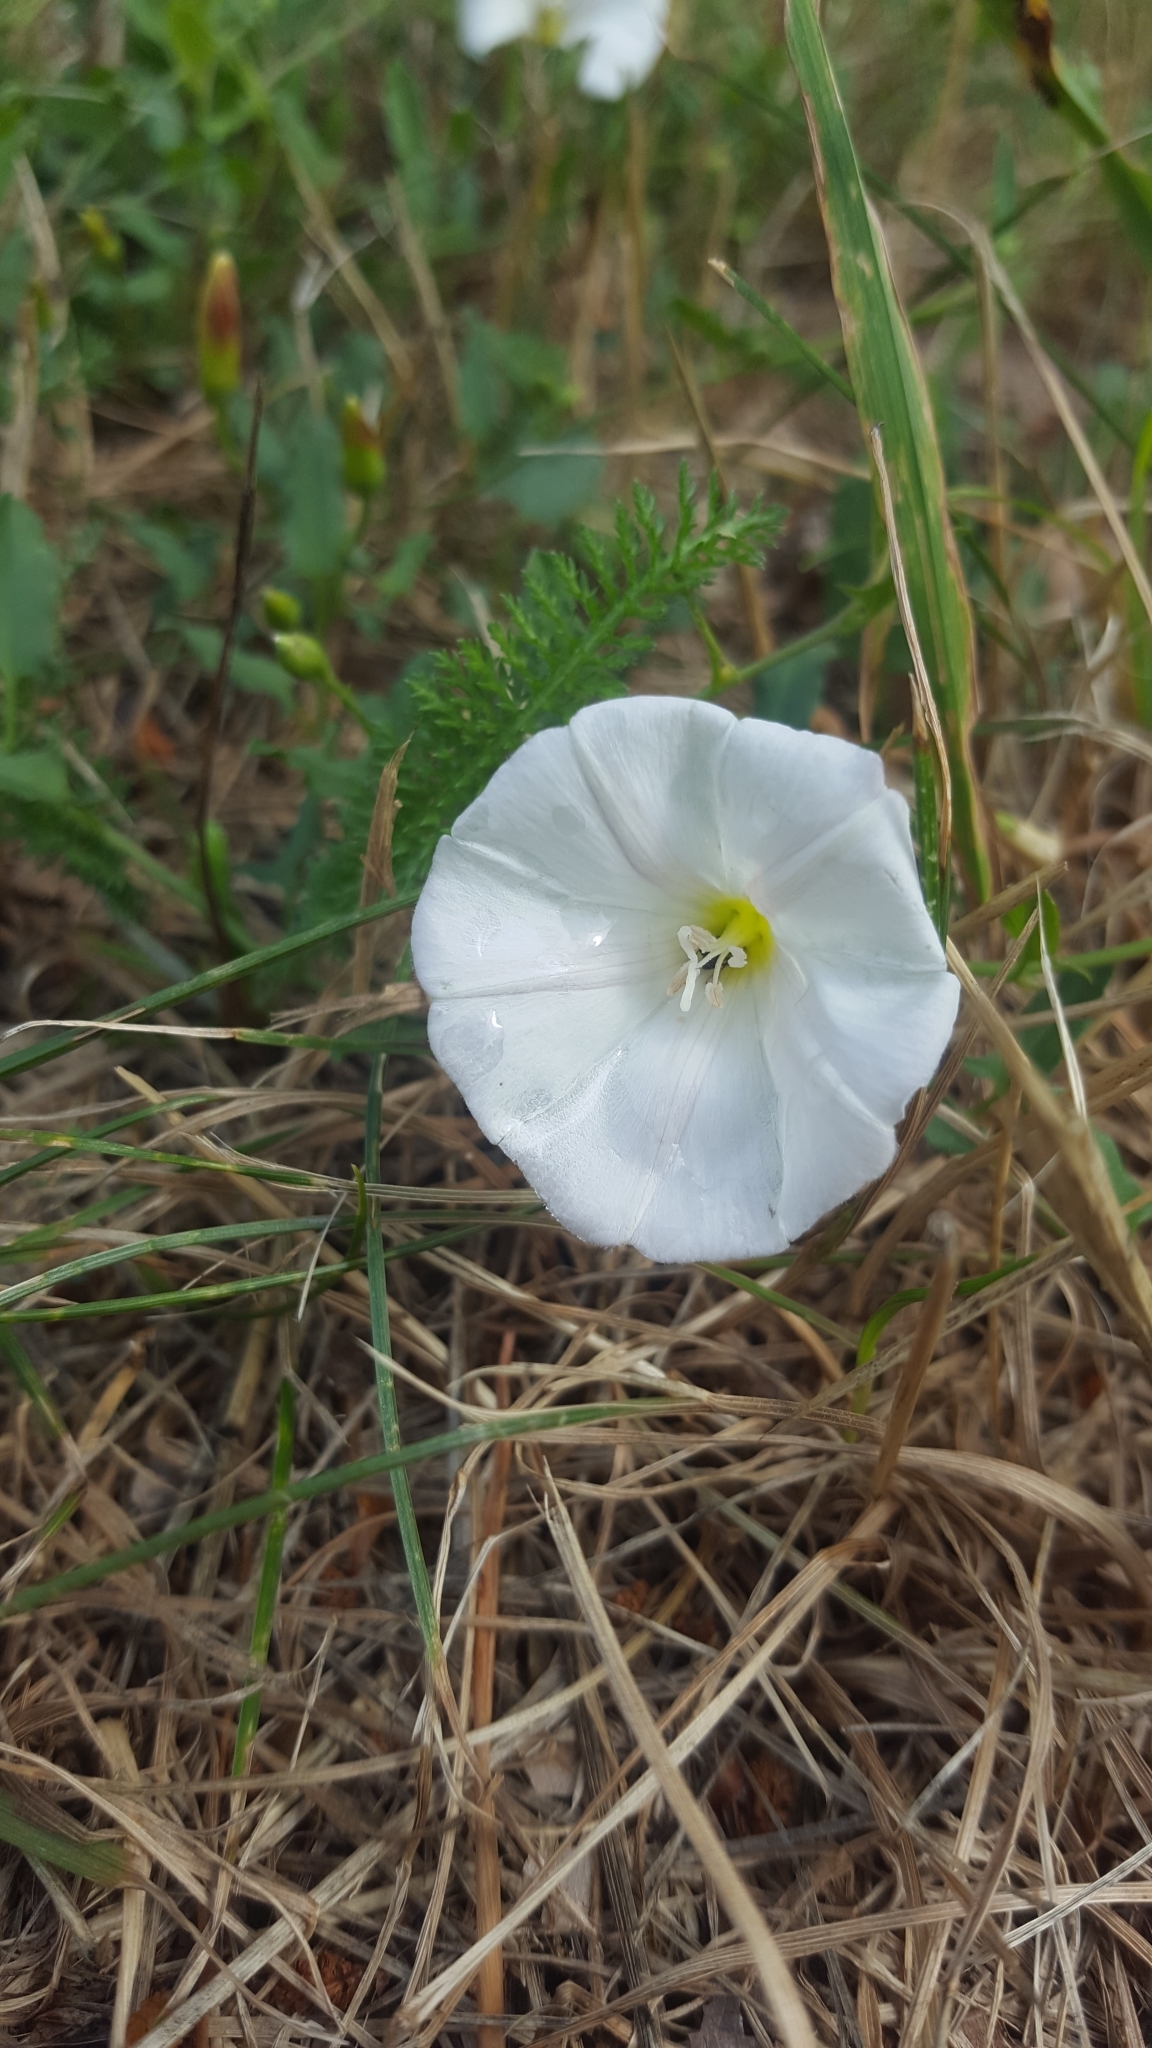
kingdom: Plantae
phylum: Tracheophyta
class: Magnoliopsida
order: Solanales
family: Convolvulaceae
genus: Convolvulus
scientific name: Convolvulus arvensis
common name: Field bindweed
